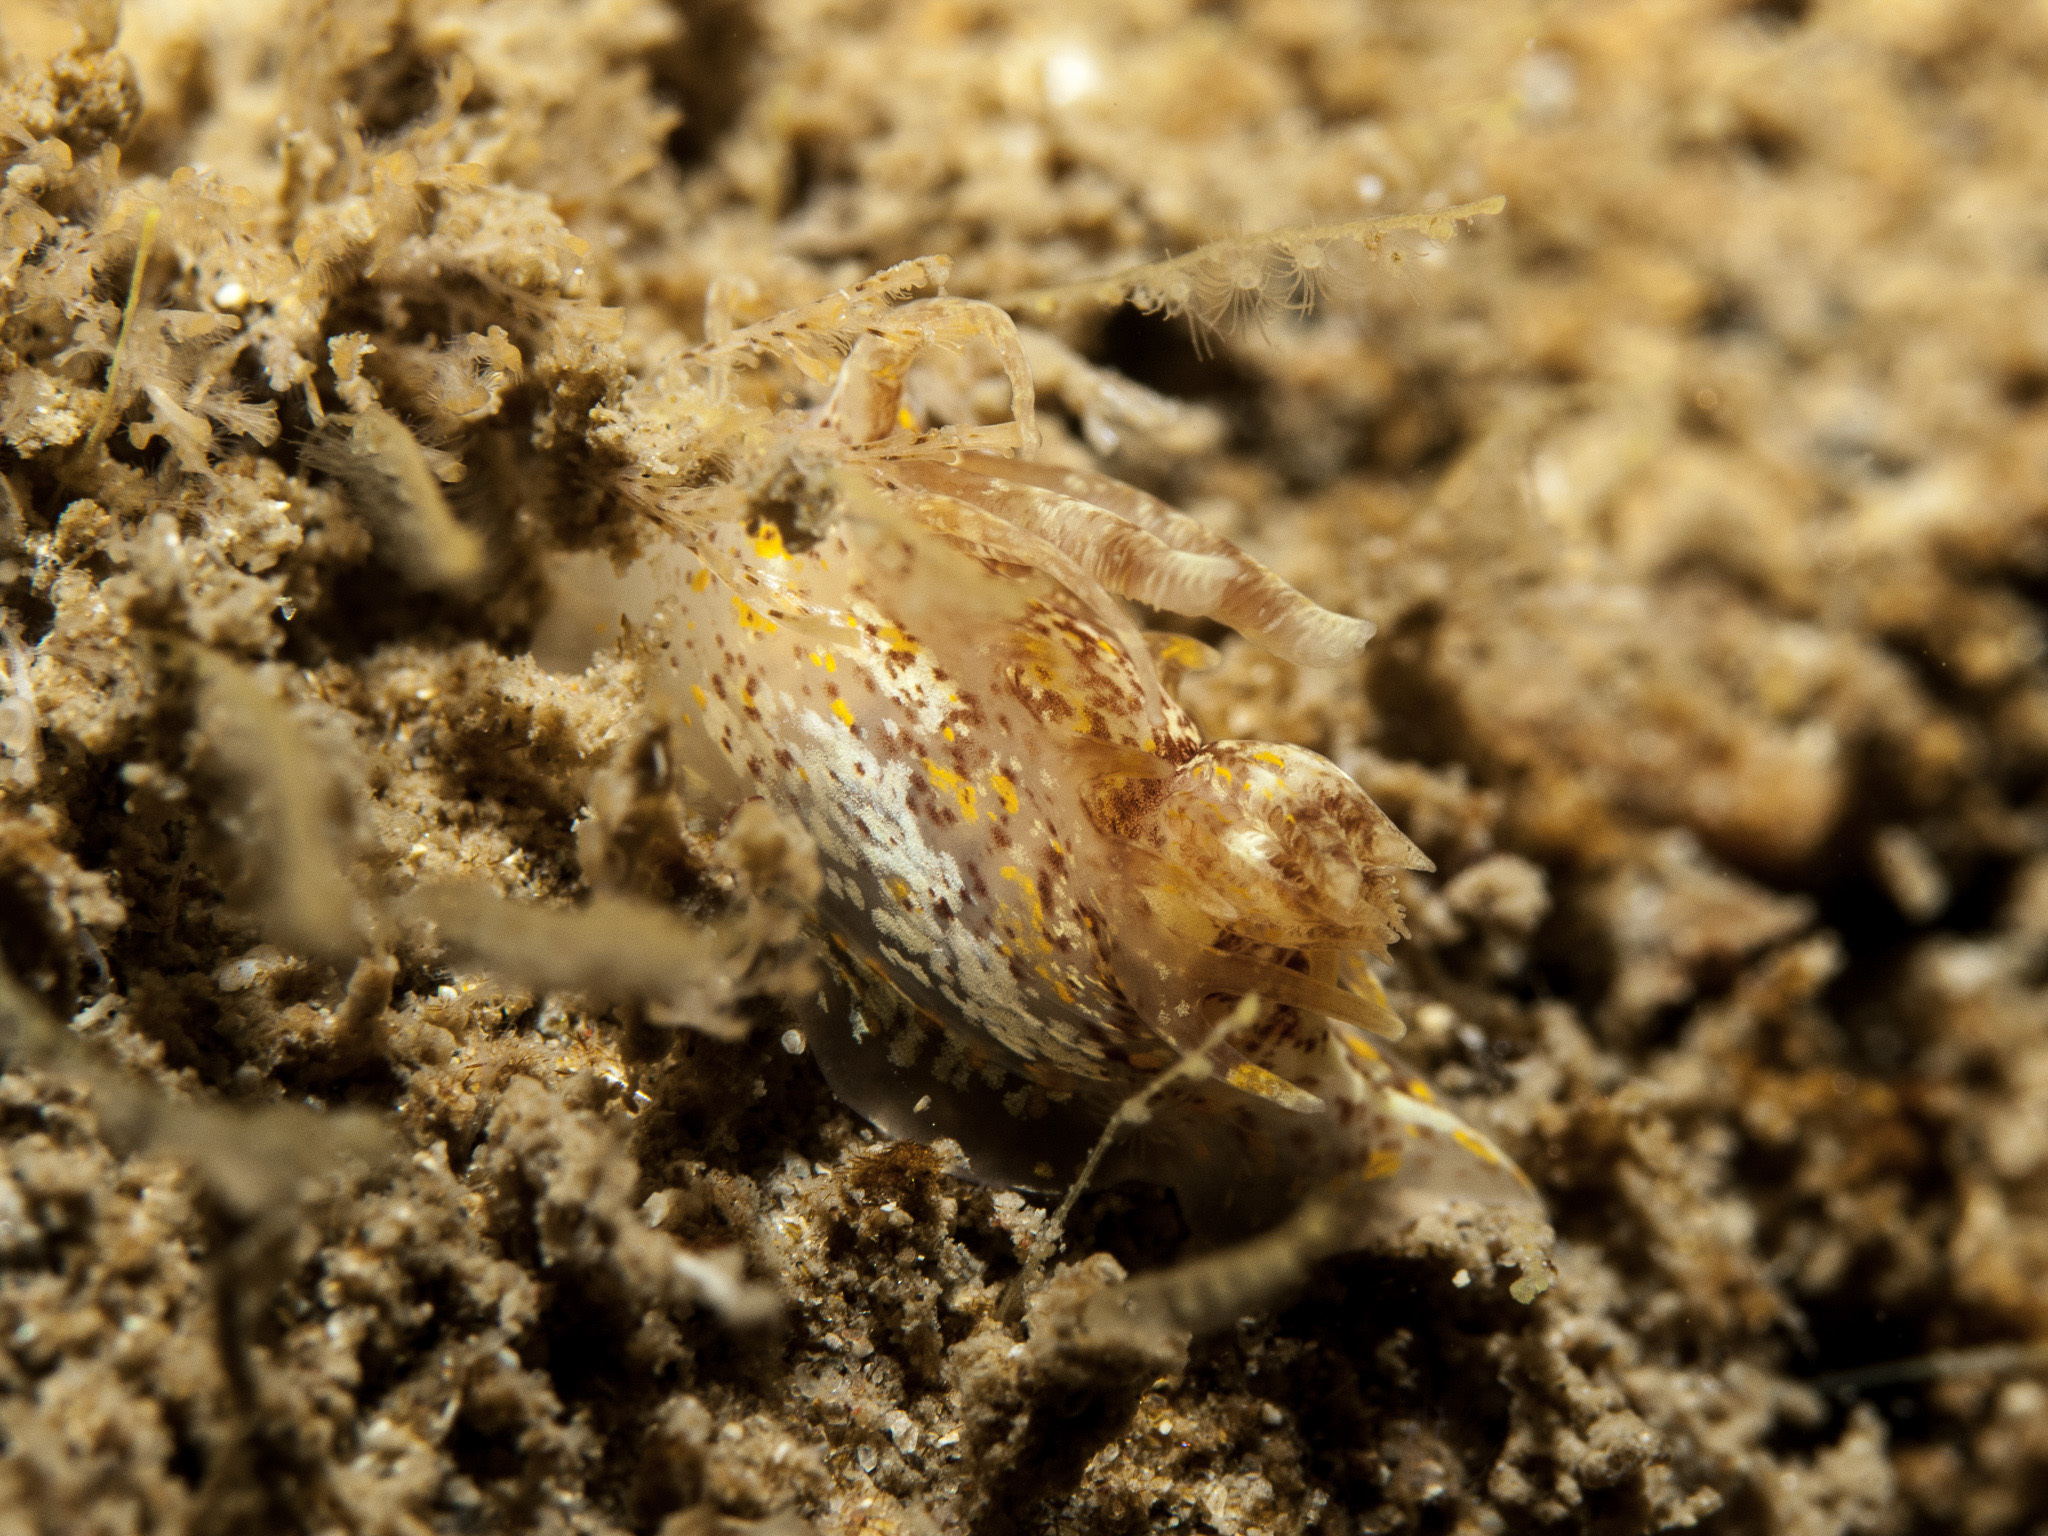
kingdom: Animalia
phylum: Mollusca
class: Gastropoda
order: Nudibranchia
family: Goniodorididae
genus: Okenia
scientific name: Okenia aspersa
